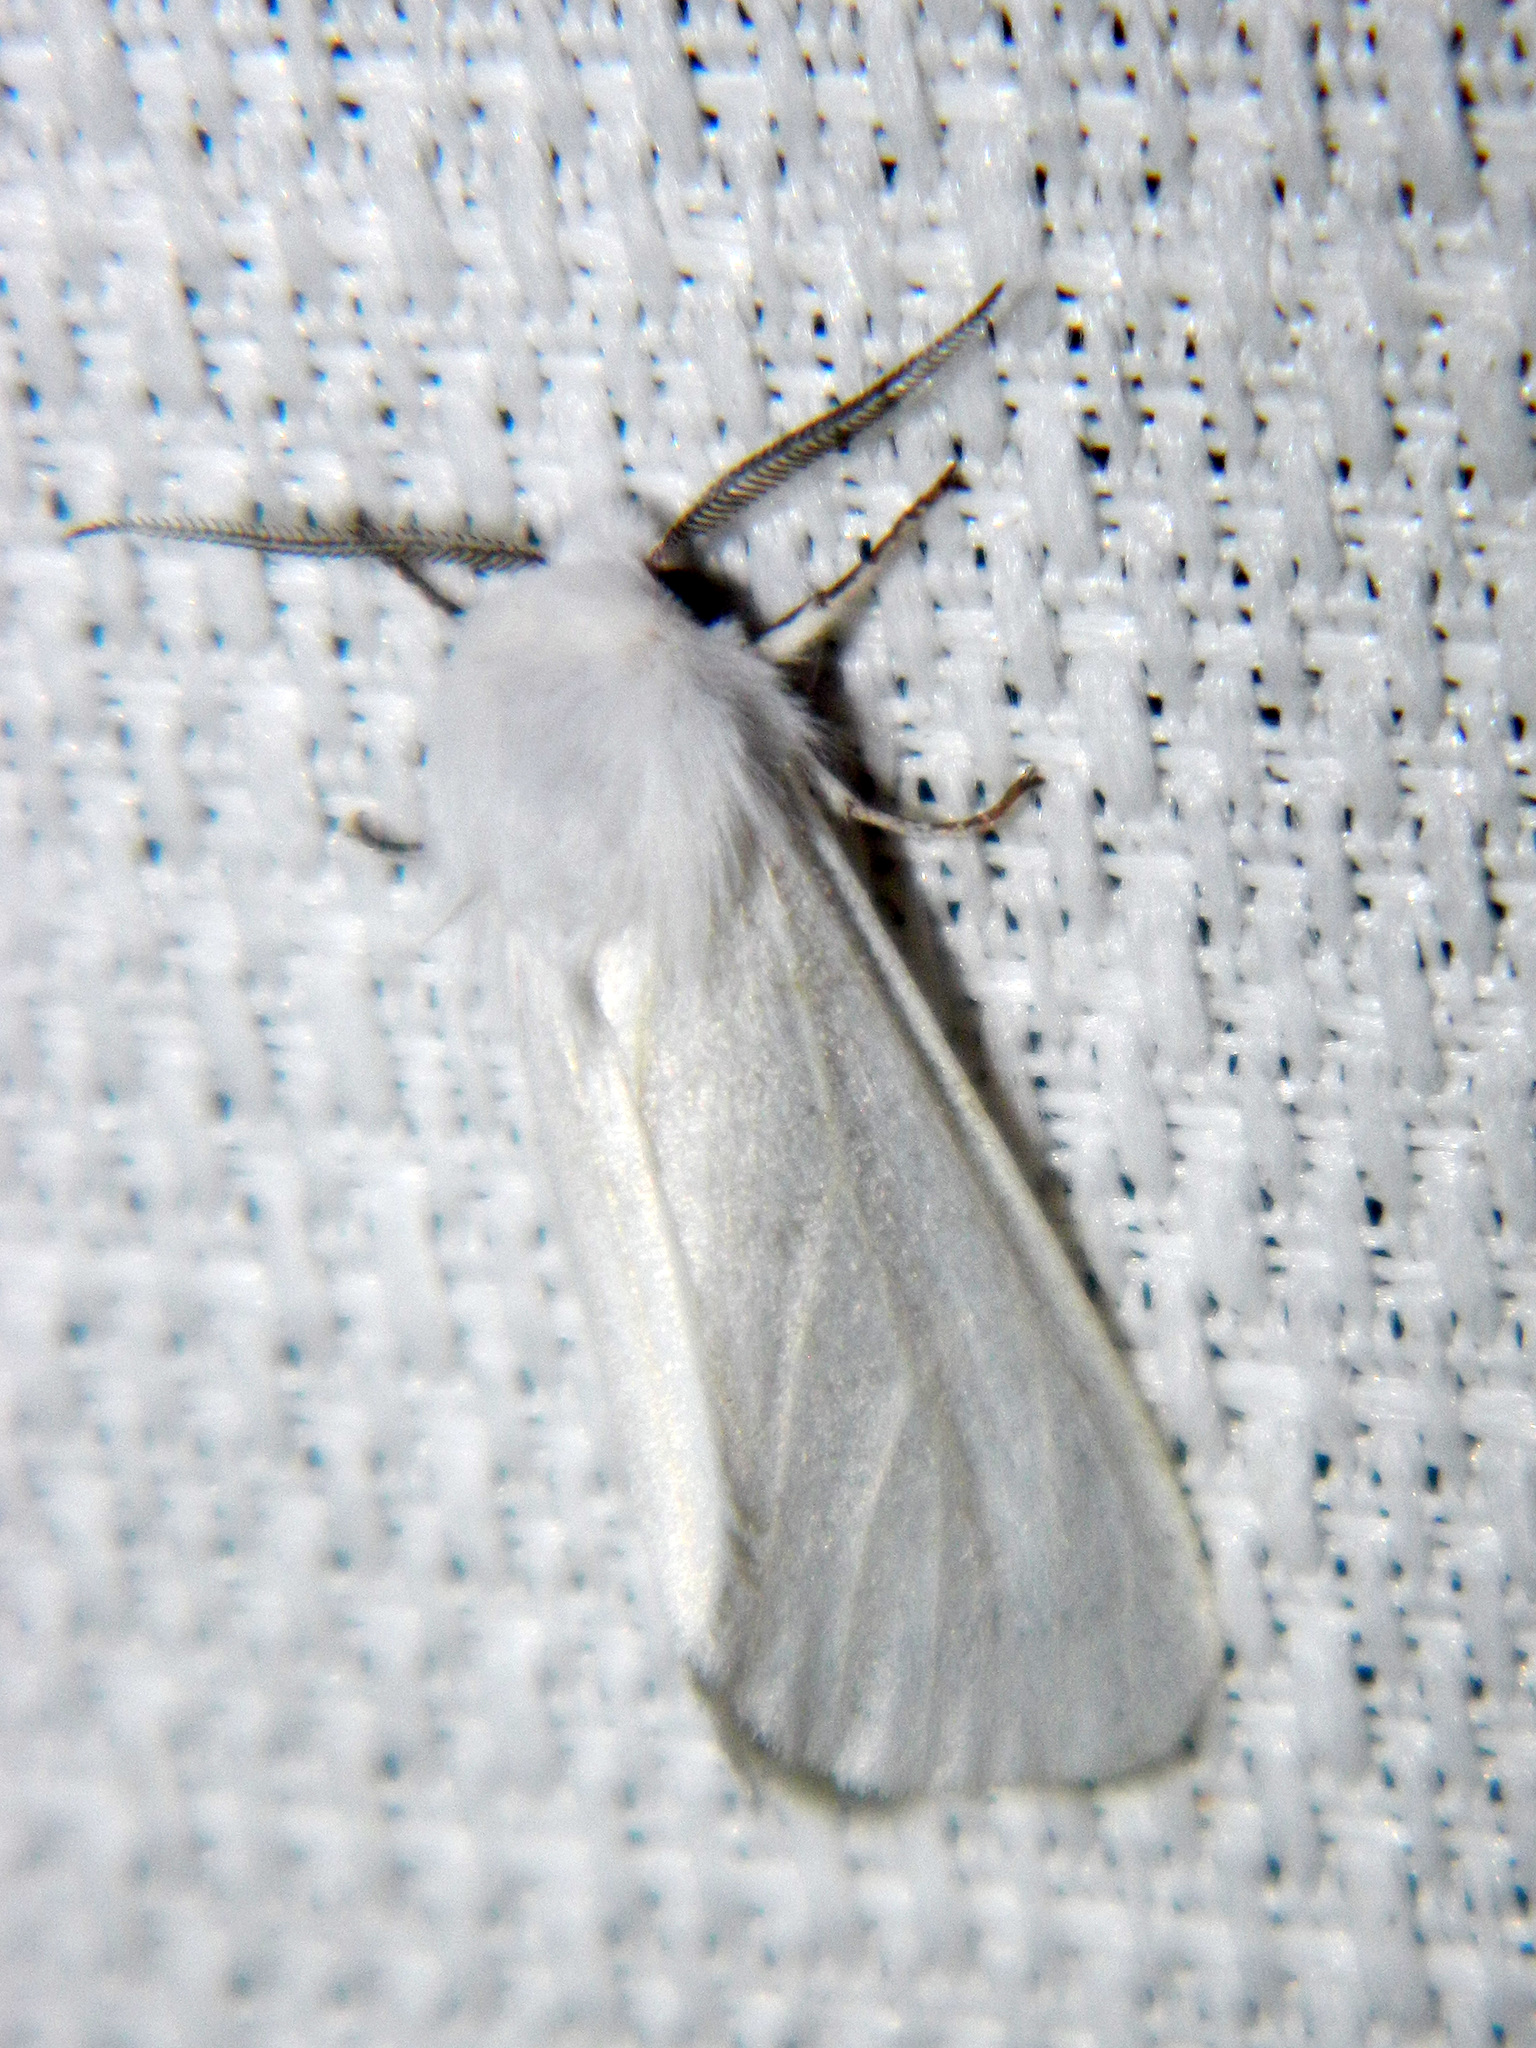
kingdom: Animalia
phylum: Arthropoda
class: Insecta
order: Lepidoptera
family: Erebidae
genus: Hyphantria
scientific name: Hyphantria cunea
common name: American white moth
